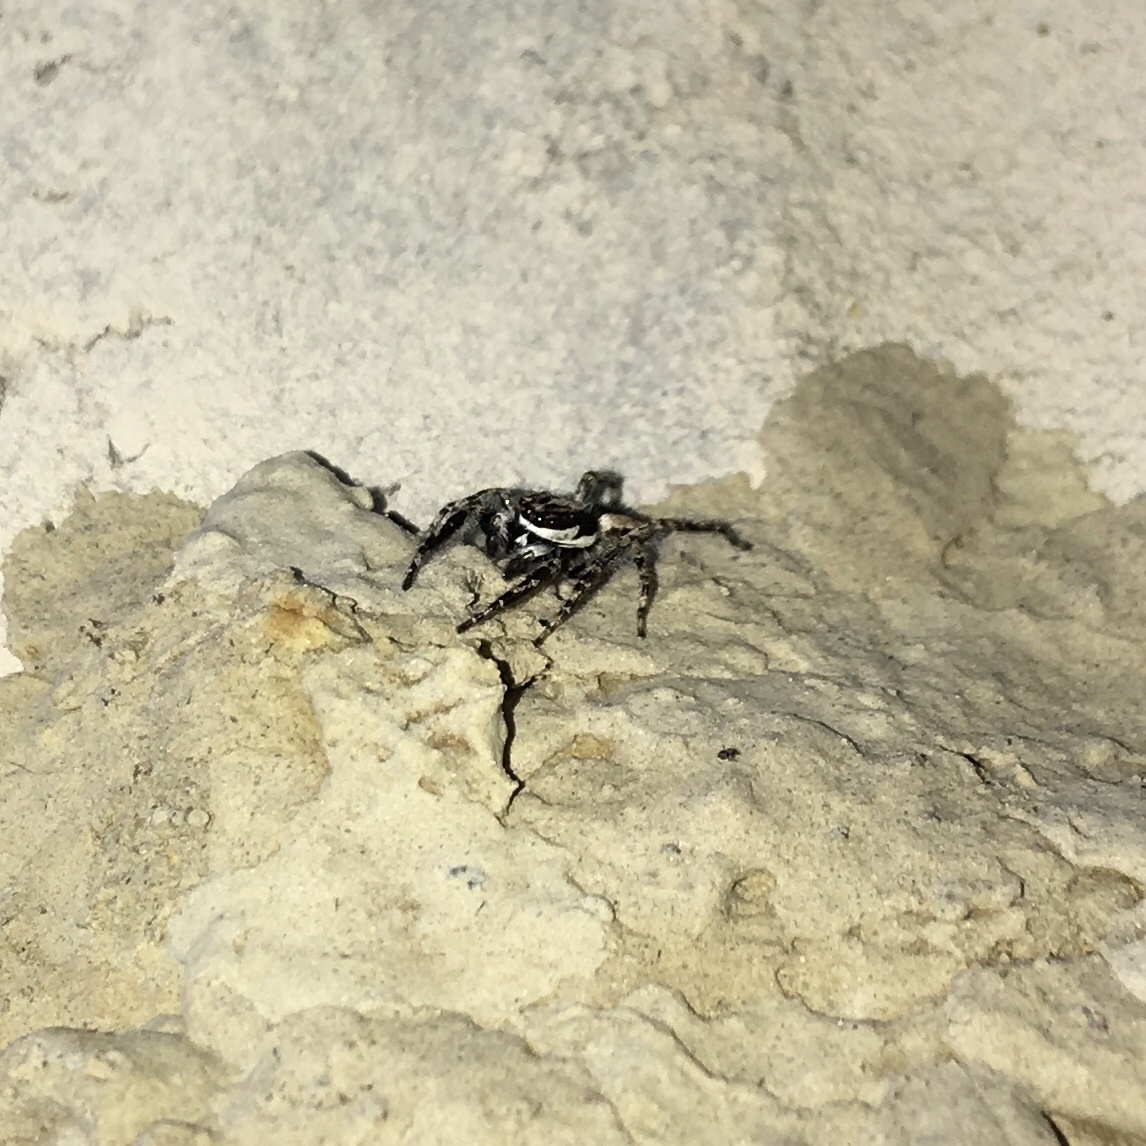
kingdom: Animalia
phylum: Arthropoda
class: Arachnida
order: Araneae
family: Salticidae
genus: Menemerus
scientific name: Menemerus bivittatus
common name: Gray wall jumper
